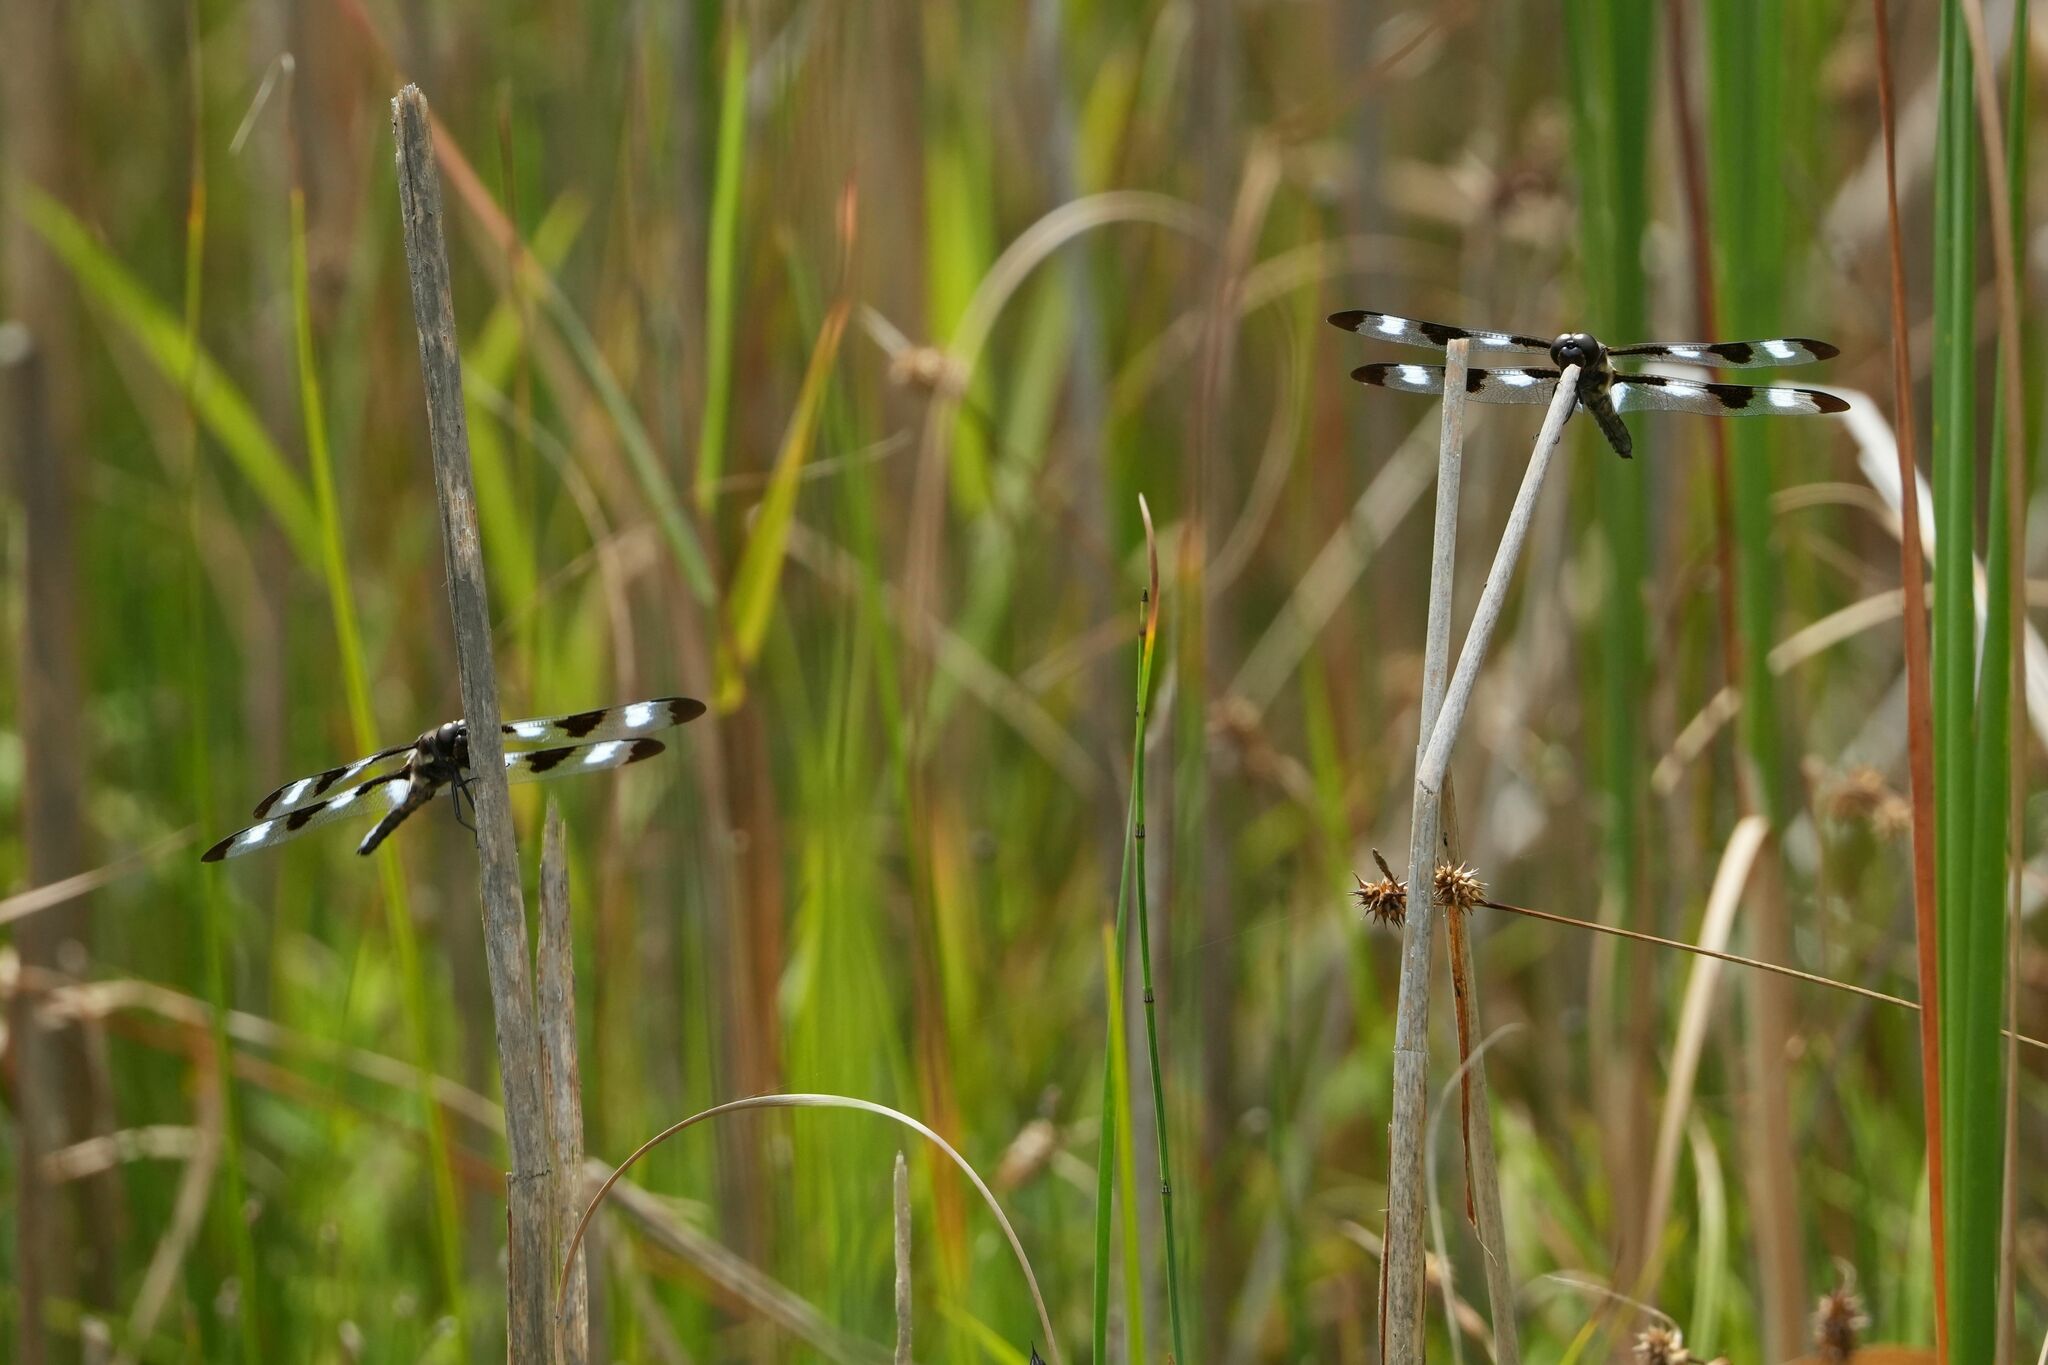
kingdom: Animalia
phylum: Arthropoda
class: Insecta
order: Odonata
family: Libellulidae
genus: Libellula
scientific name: Libellula pulchella
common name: Twelve-spotted skimmer
